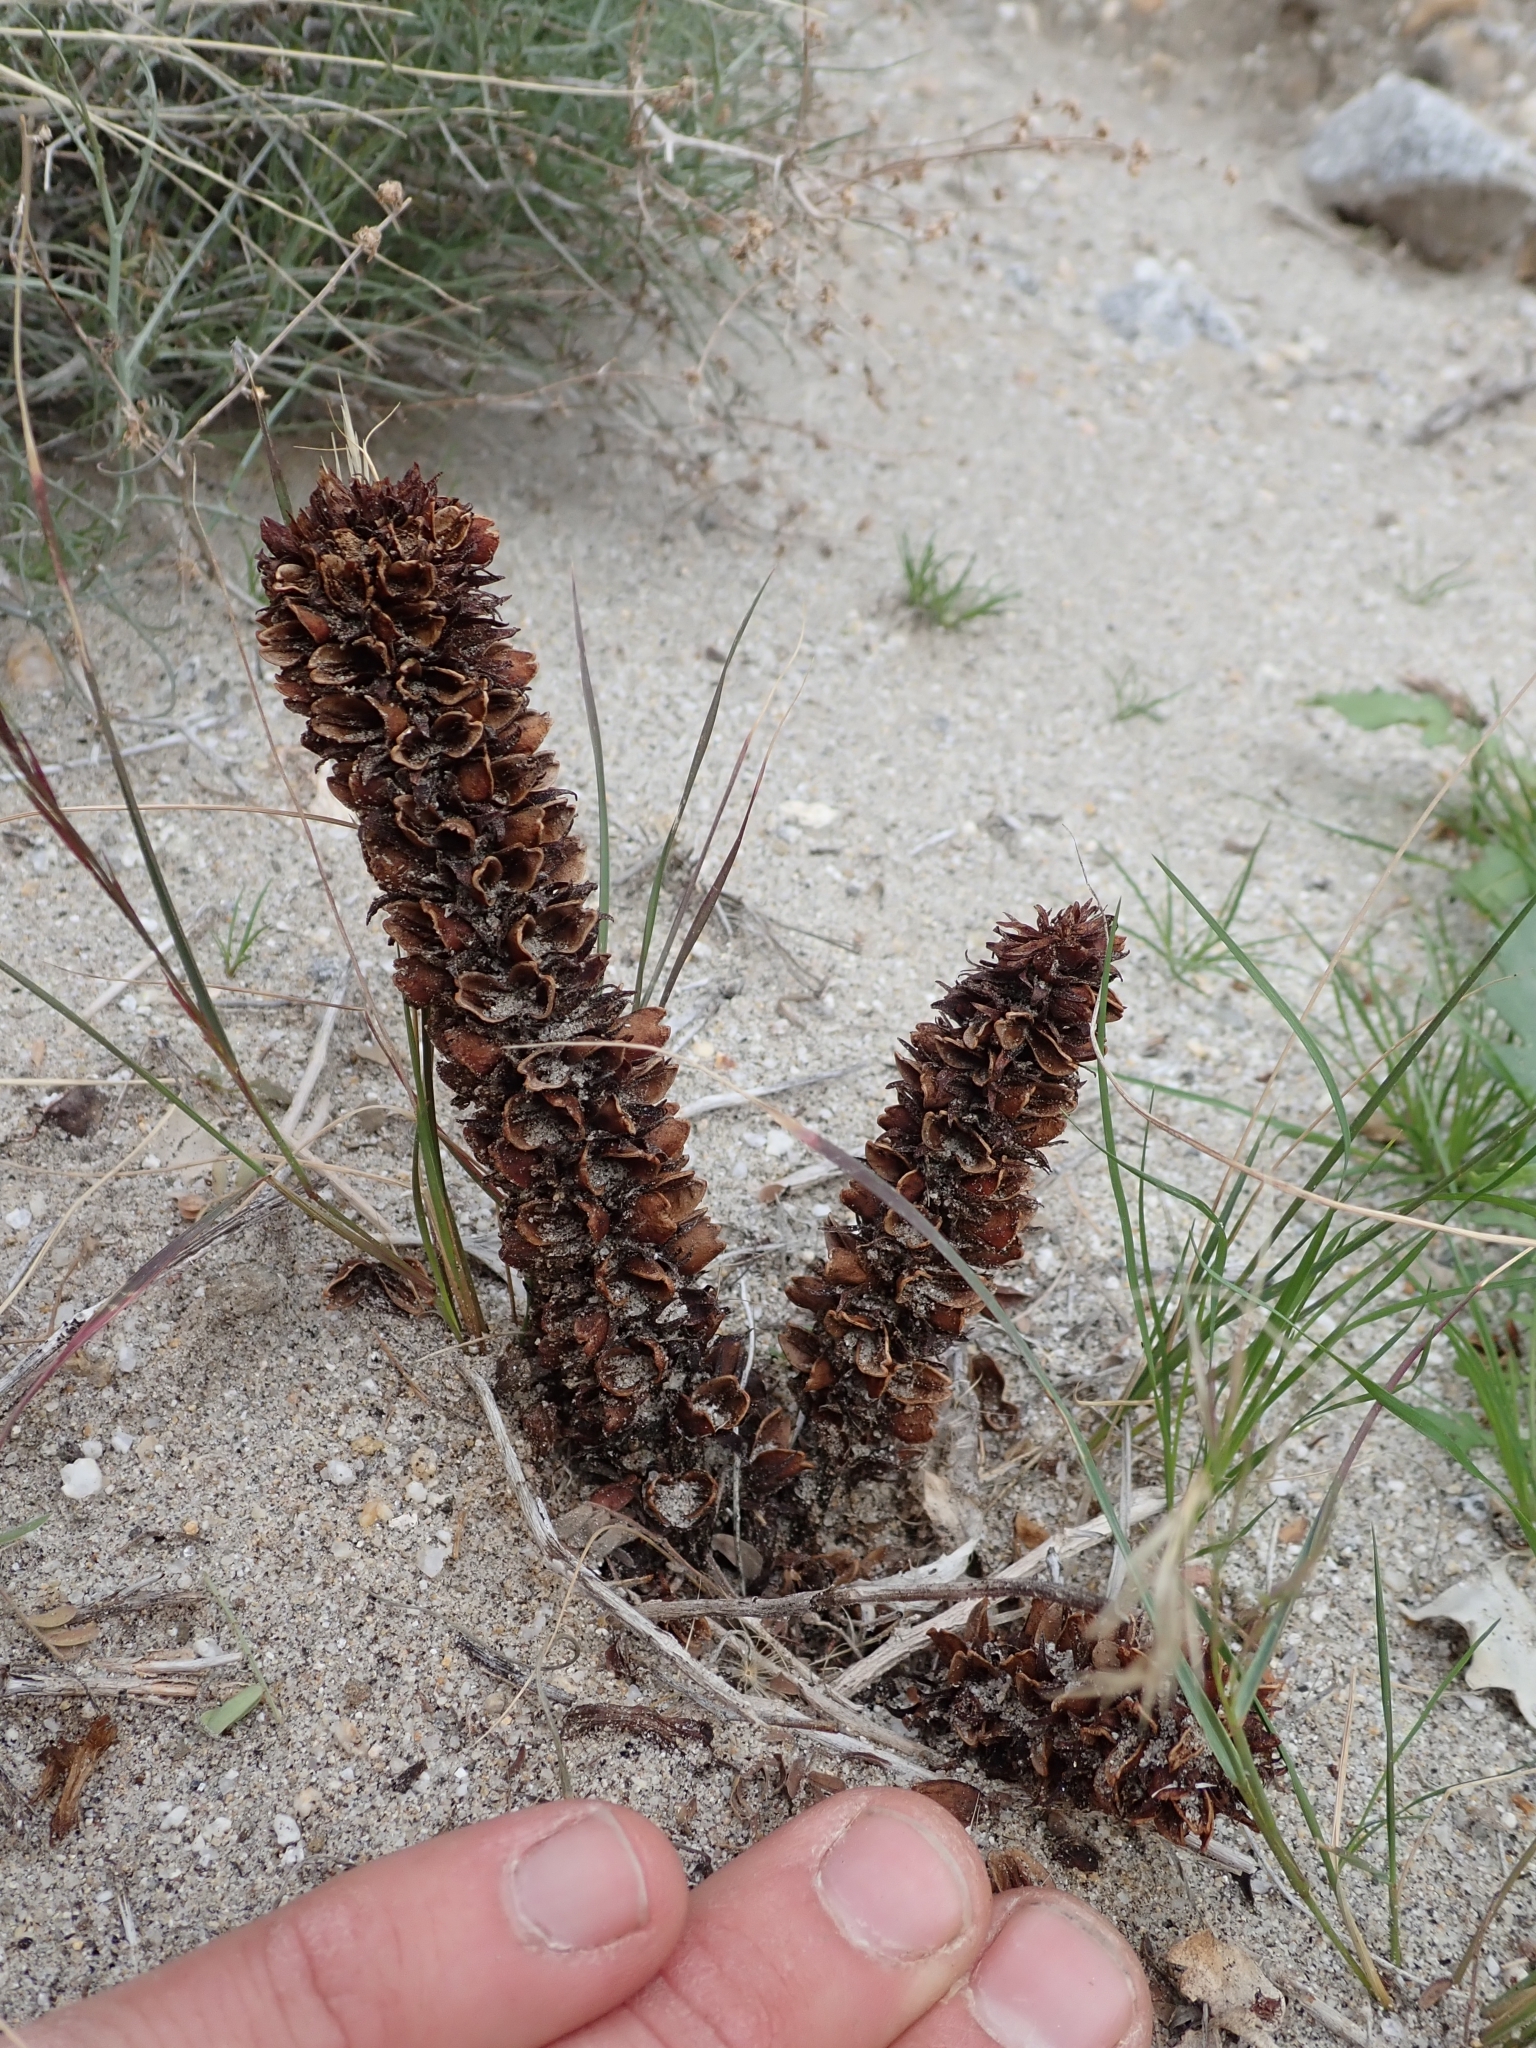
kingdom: Plantae
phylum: Tracheophyta
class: Magnoliopsida
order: Lamiales
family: Orobanchaceae
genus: Aphyllon
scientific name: Aphyllon cooperi
